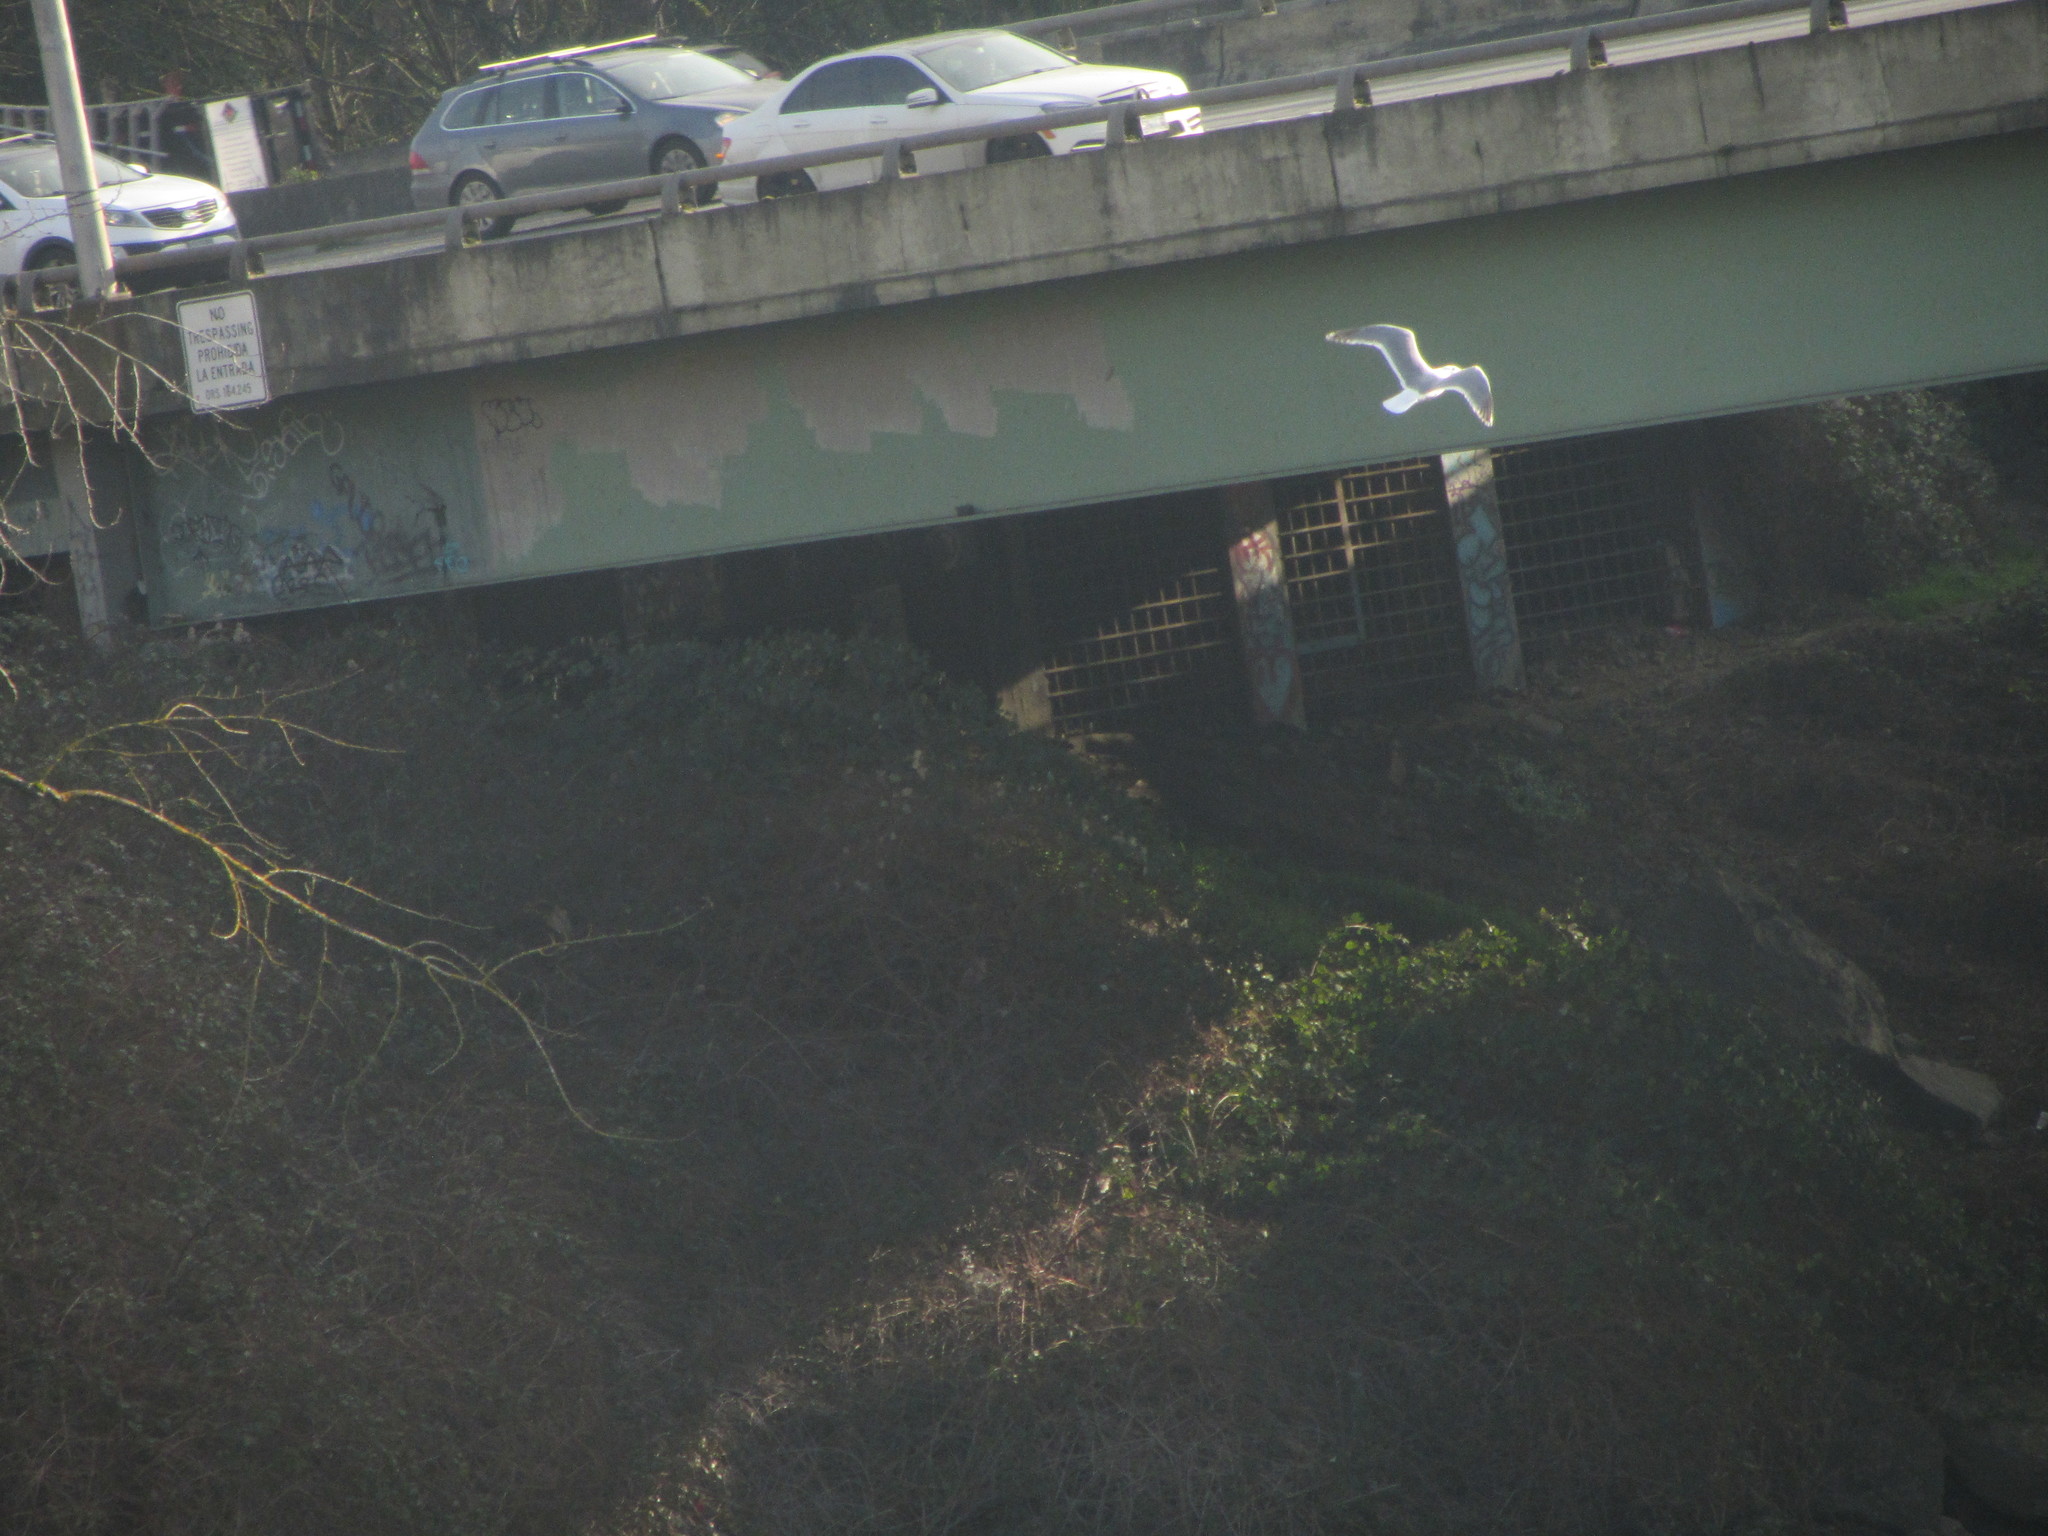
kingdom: Animalia
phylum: Chordata
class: Aves
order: Charadriiformes
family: Laridae
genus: Larus
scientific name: Larus
